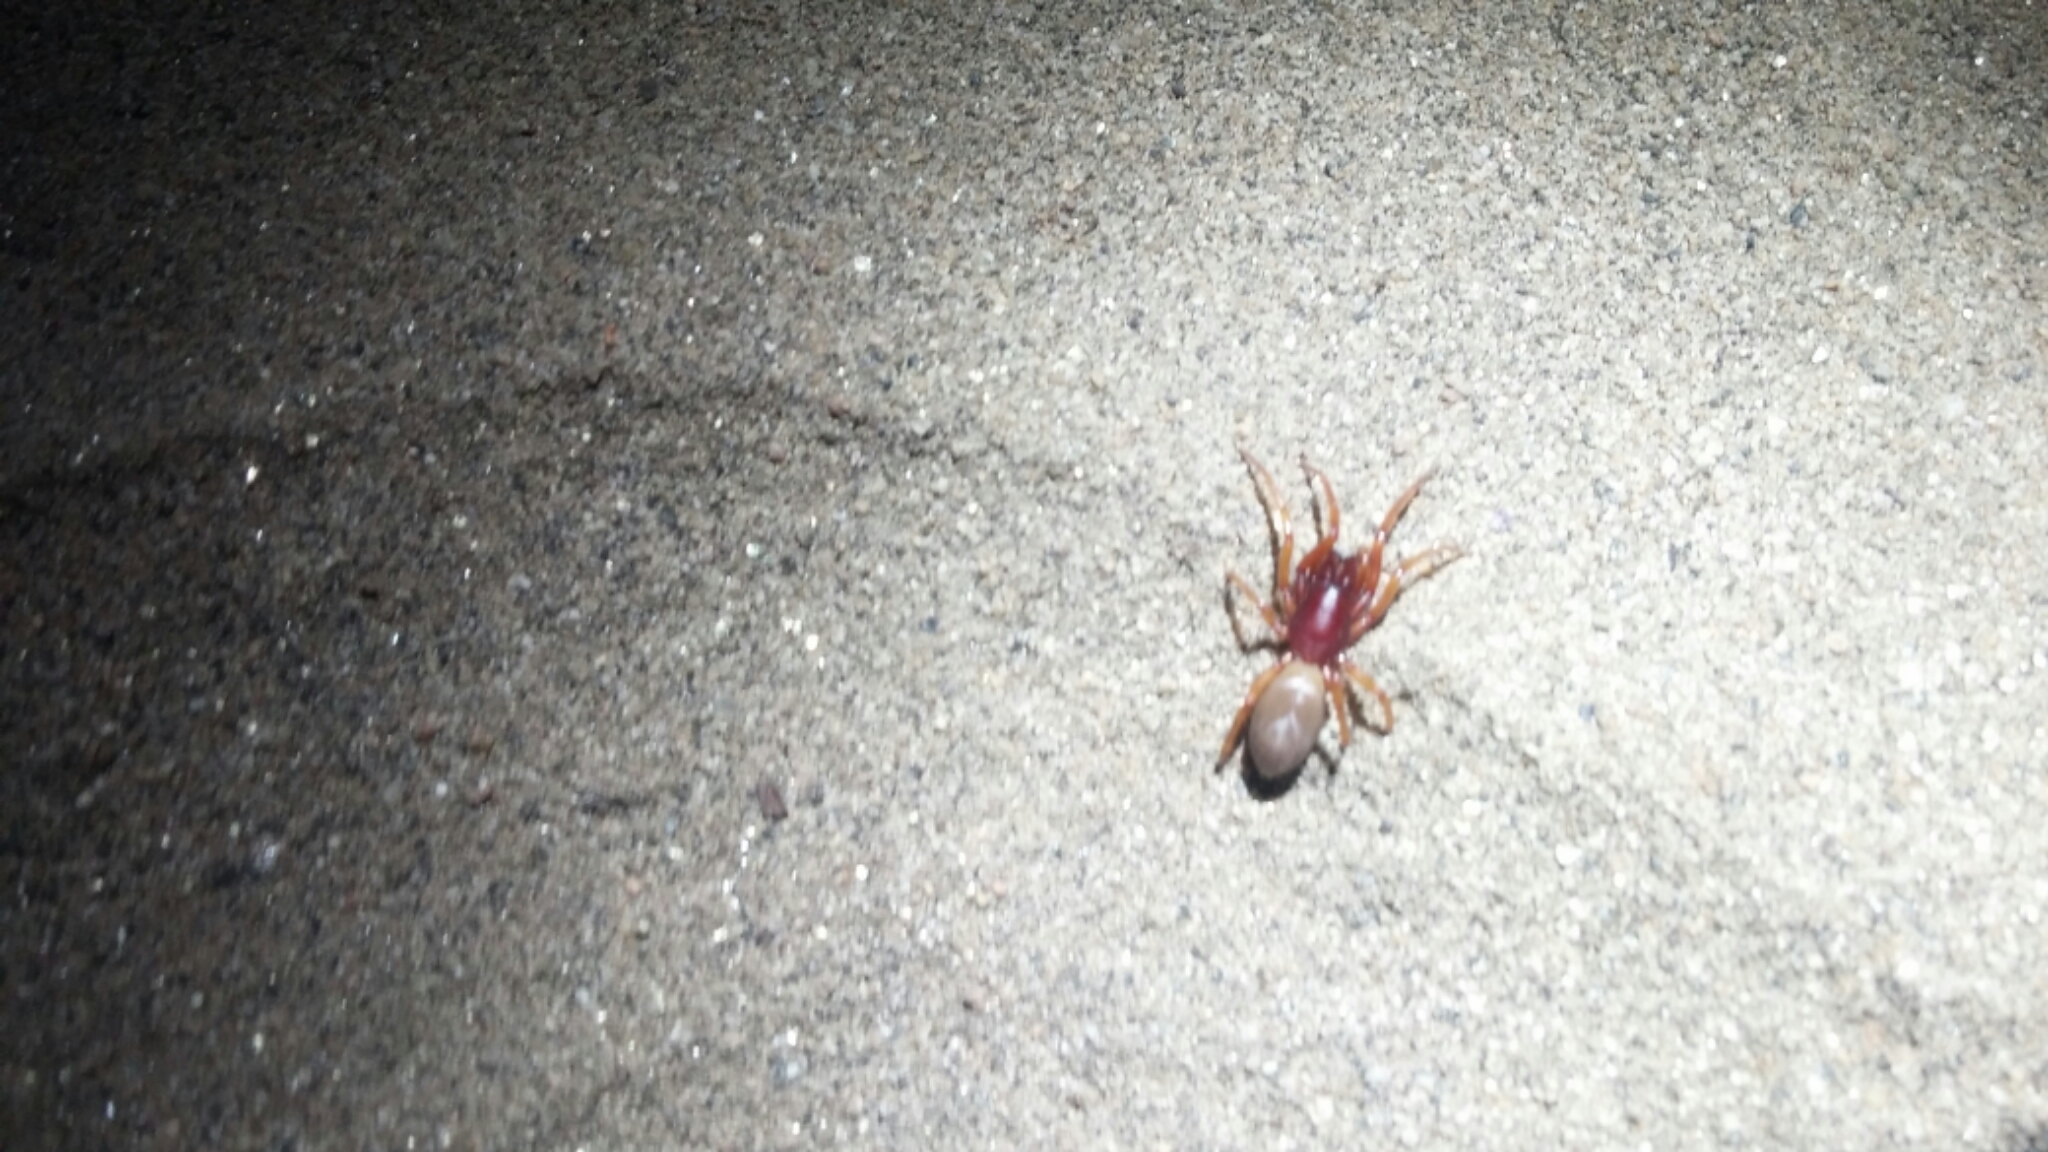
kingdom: Animalia
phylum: Arthropoda
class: Arachnida
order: Araneae
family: Dysderidae
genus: Dysdera
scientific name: Dysdera crocata
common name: Woodlouse spider
